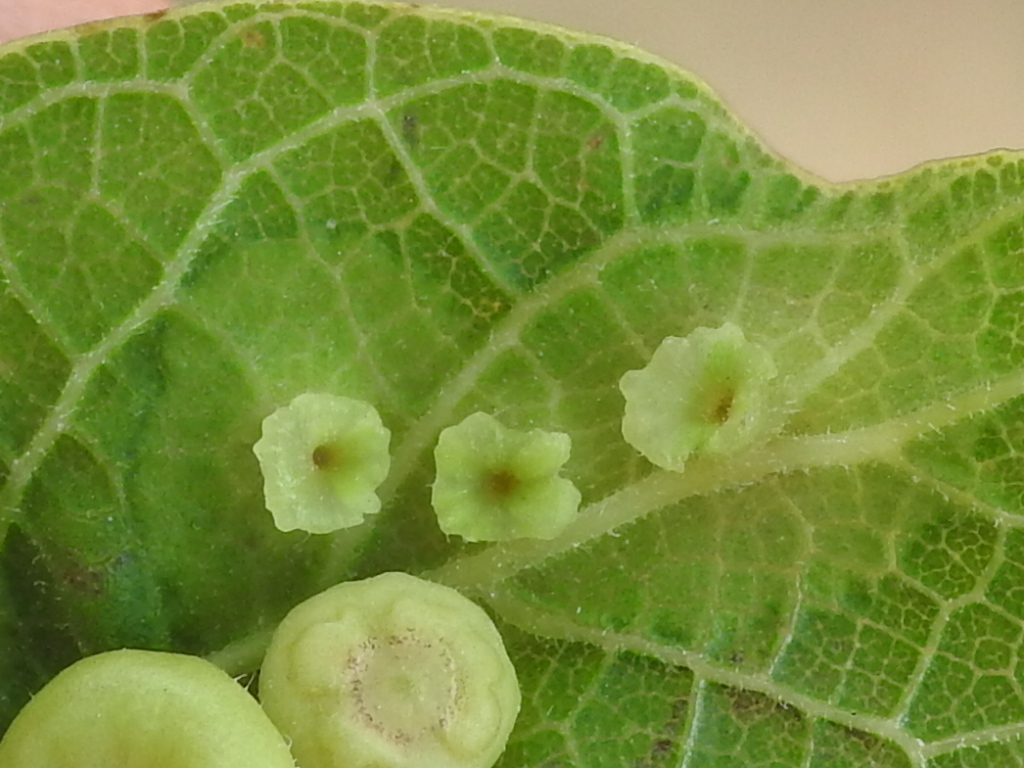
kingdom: Animalia
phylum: Arthropoda
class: Insecta
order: Hemiptera
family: Aphalaridae
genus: Pachypsylla
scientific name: Pachypsylla celtidisasterisca
